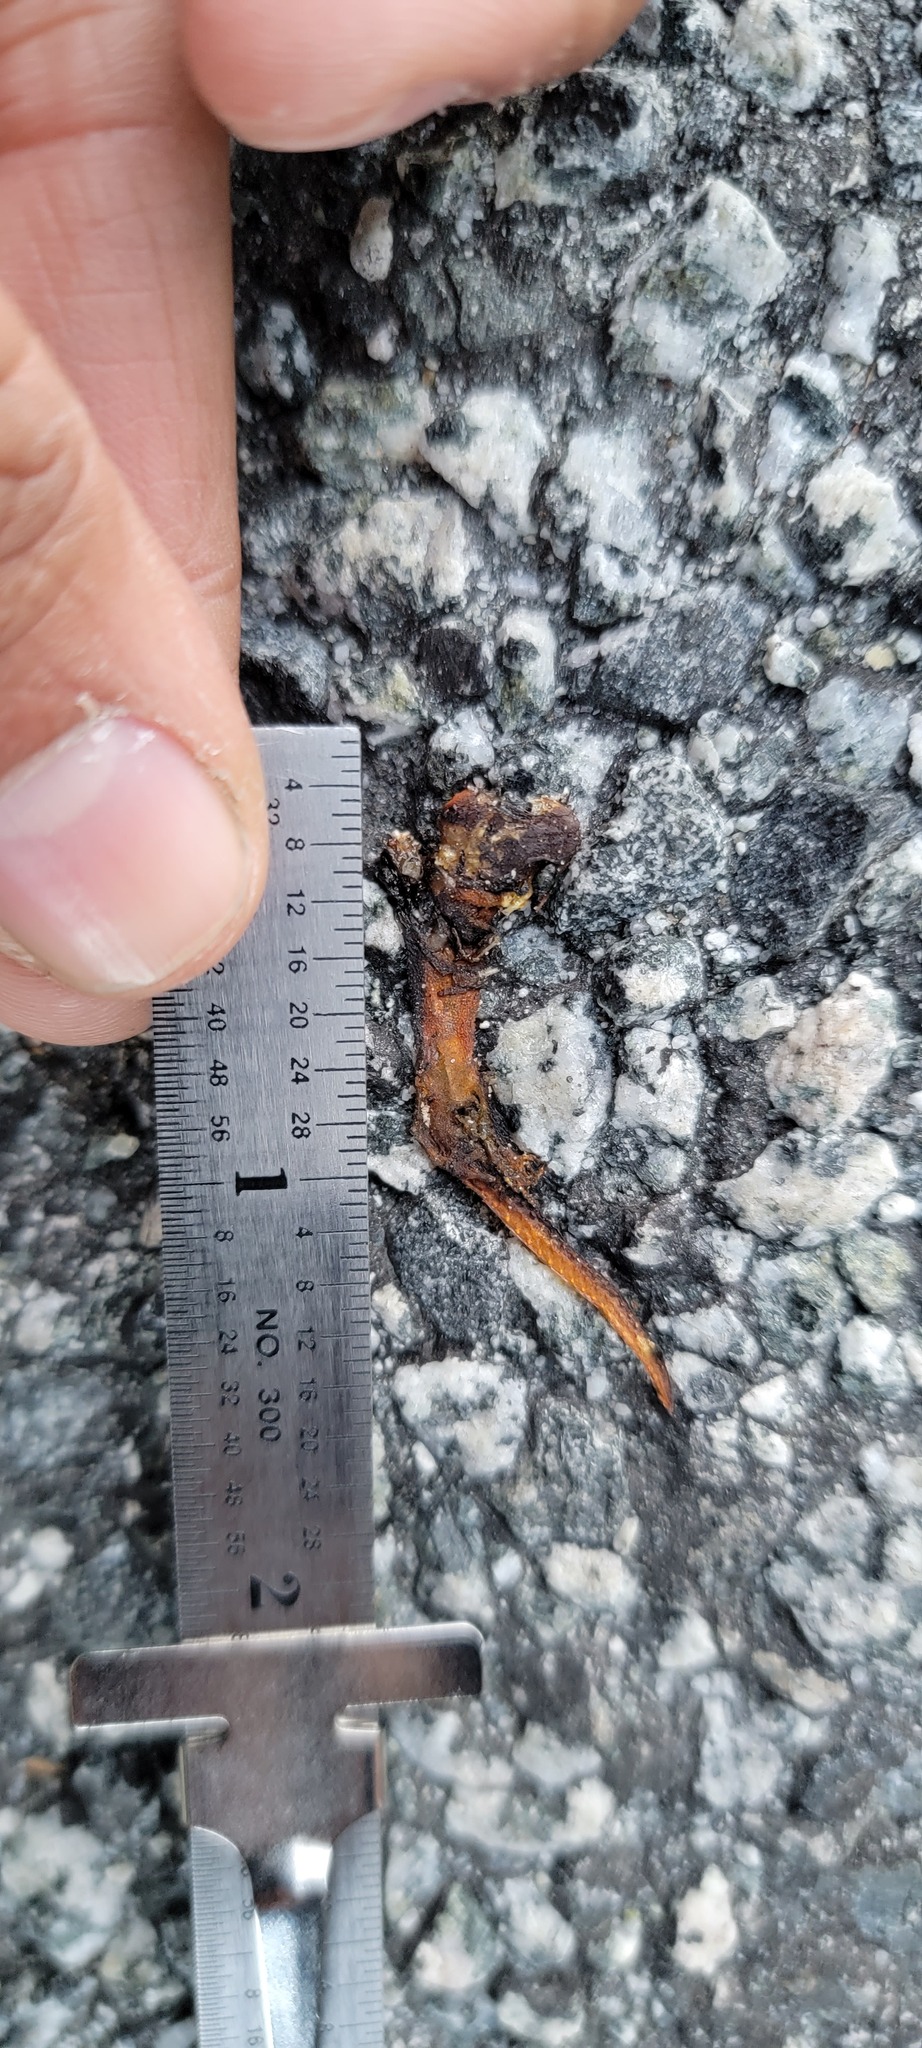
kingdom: Animalia
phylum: Chordata
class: Amphibia
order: Caudata
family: Salamandridae
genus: Taricha
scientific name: Taricha
